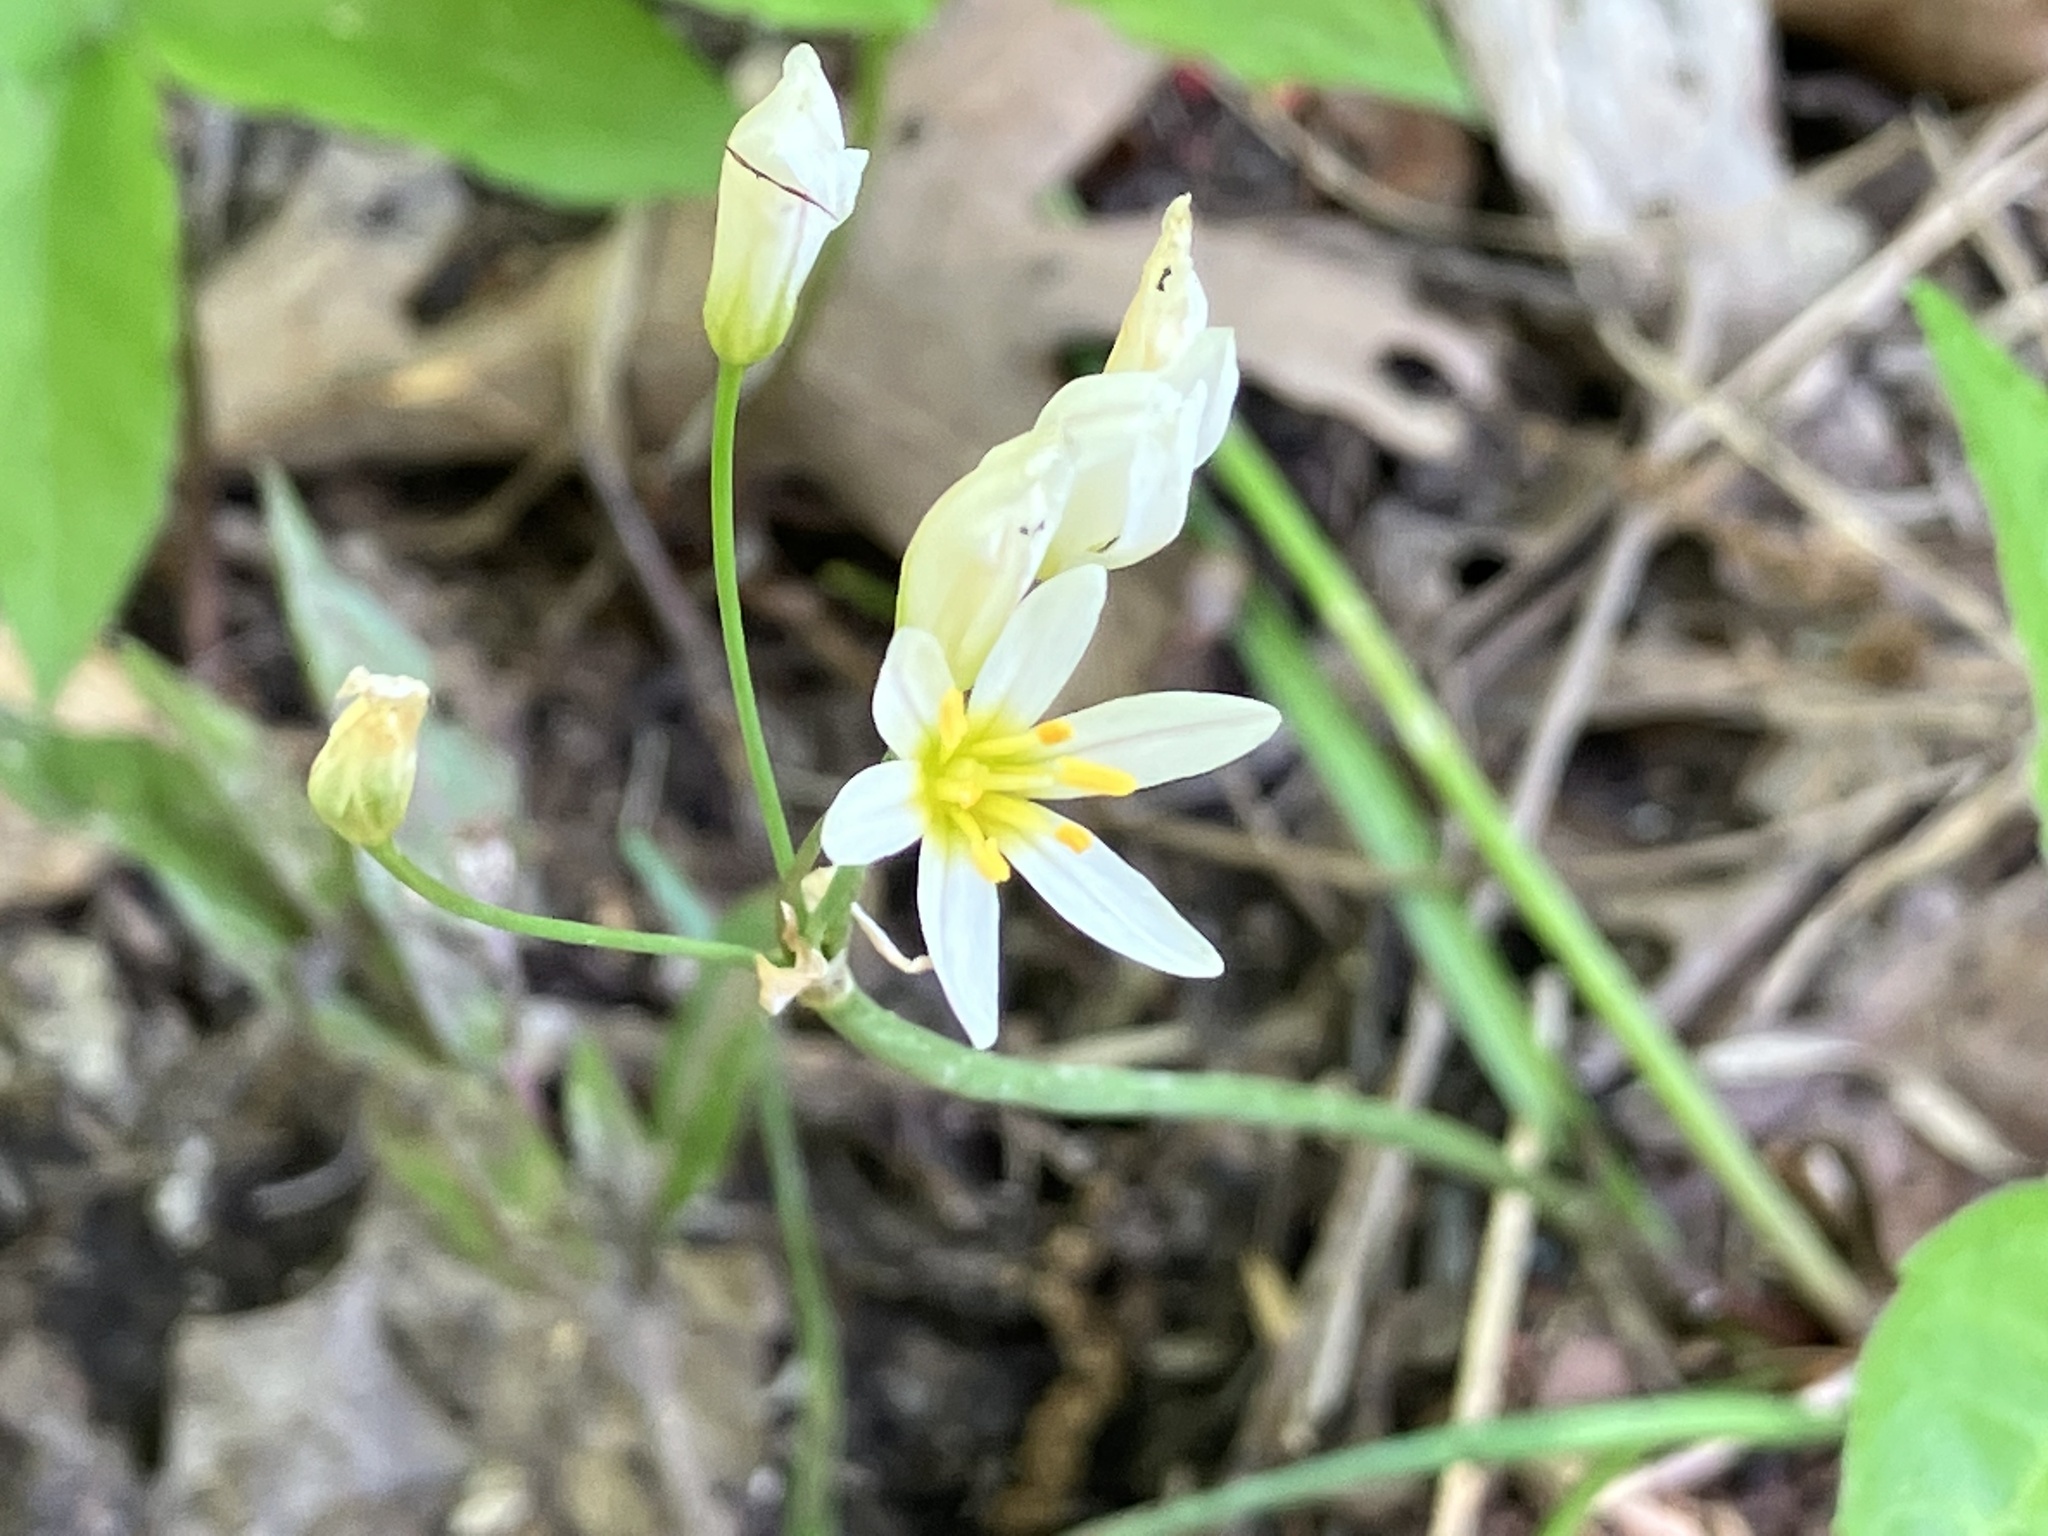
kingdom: Plantae
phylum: Tracheophyta
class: Liliopsida
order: Asparagales
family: Amaryllidaceae
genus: Nothoscordum
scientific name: Nothoscordum bivalve
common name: Crow-poison
